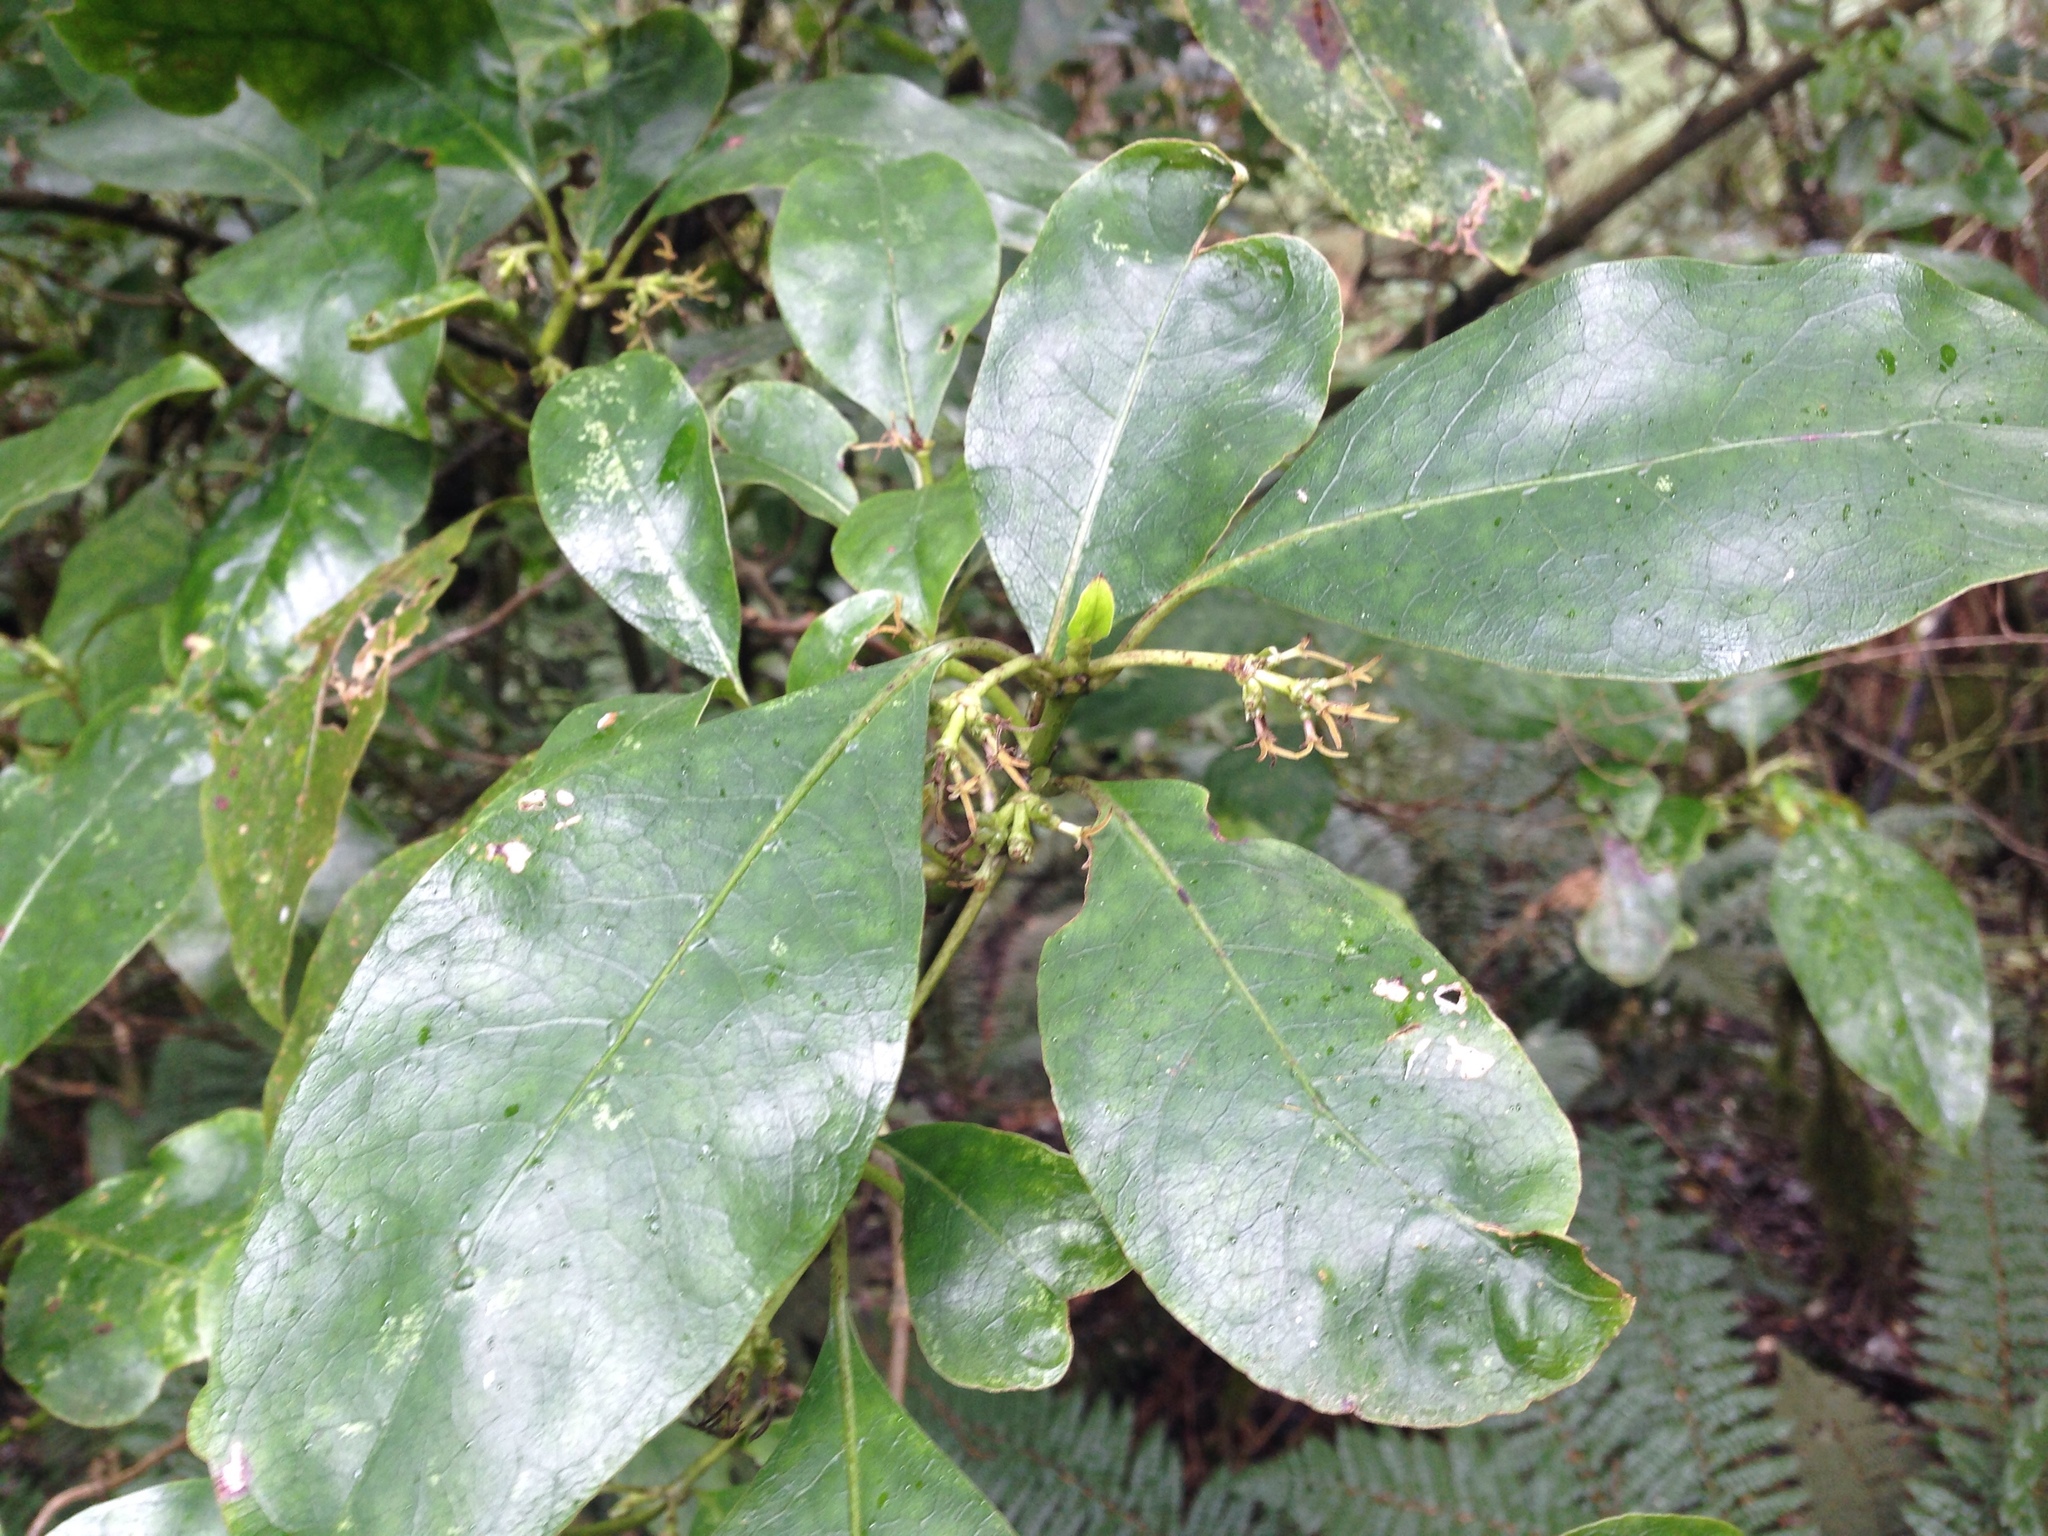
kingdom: Plantae
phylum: Tracheophyta
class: Magnoliopsida
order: Gentianales
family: Rubiaceae
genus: Coprosma
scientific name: Coprosma autumnalis
